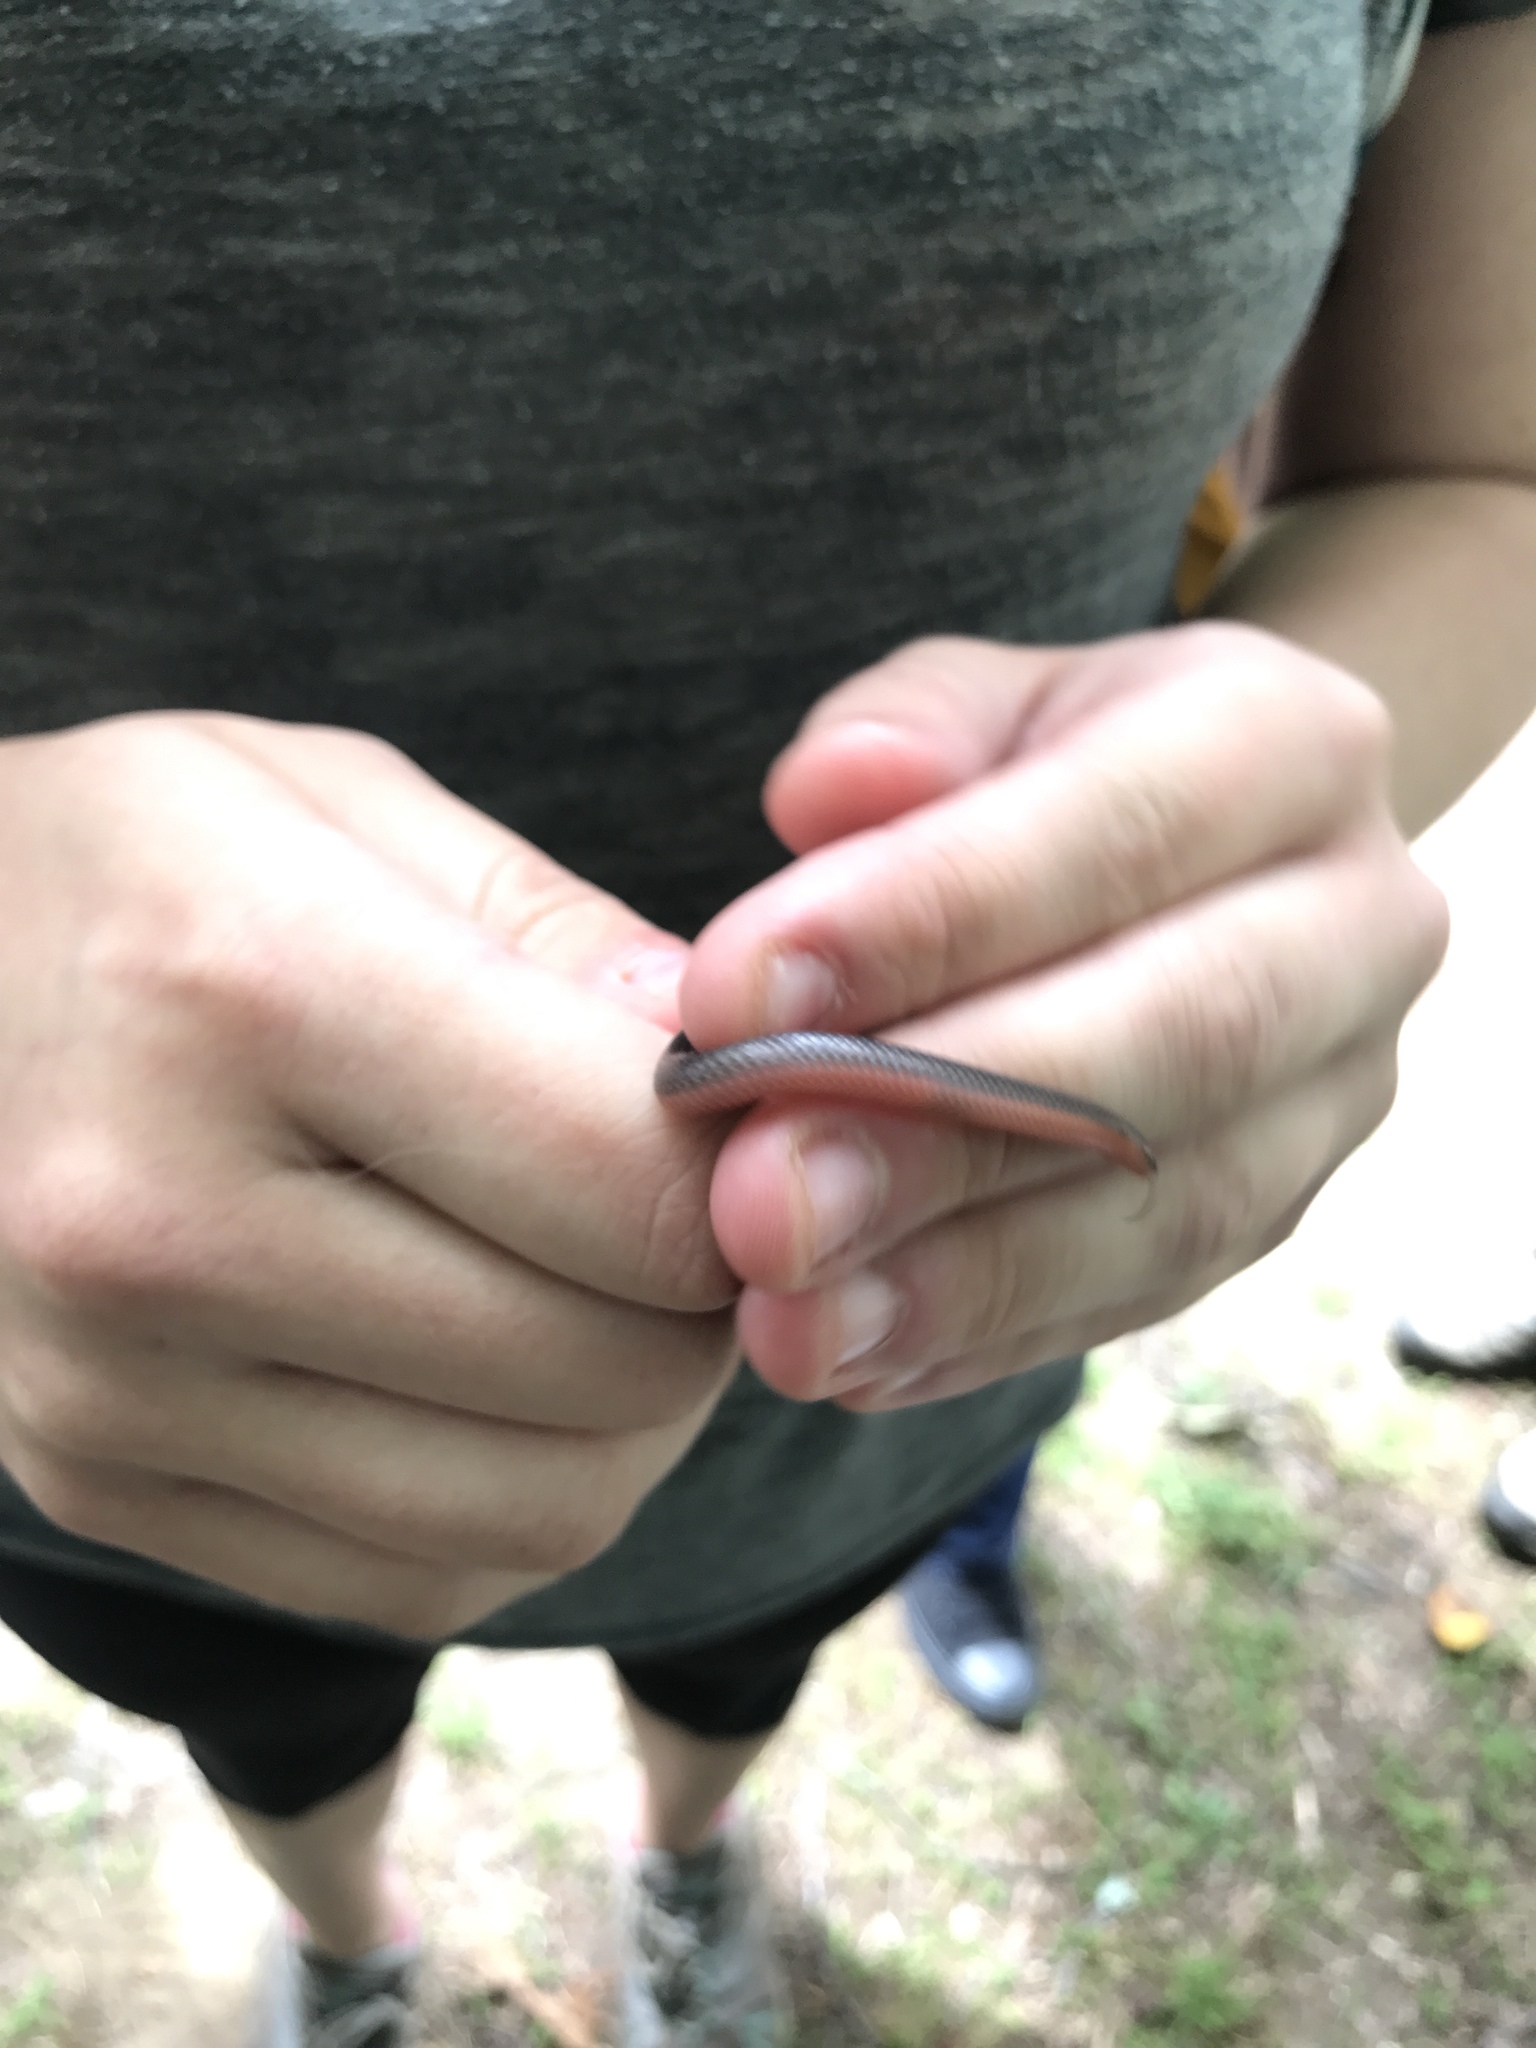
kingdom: Animalia
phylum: Chordata
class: Squamata
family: Colubridae
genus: Carphophis
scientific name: Carphophis amoenus
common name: Eastern worm snake
